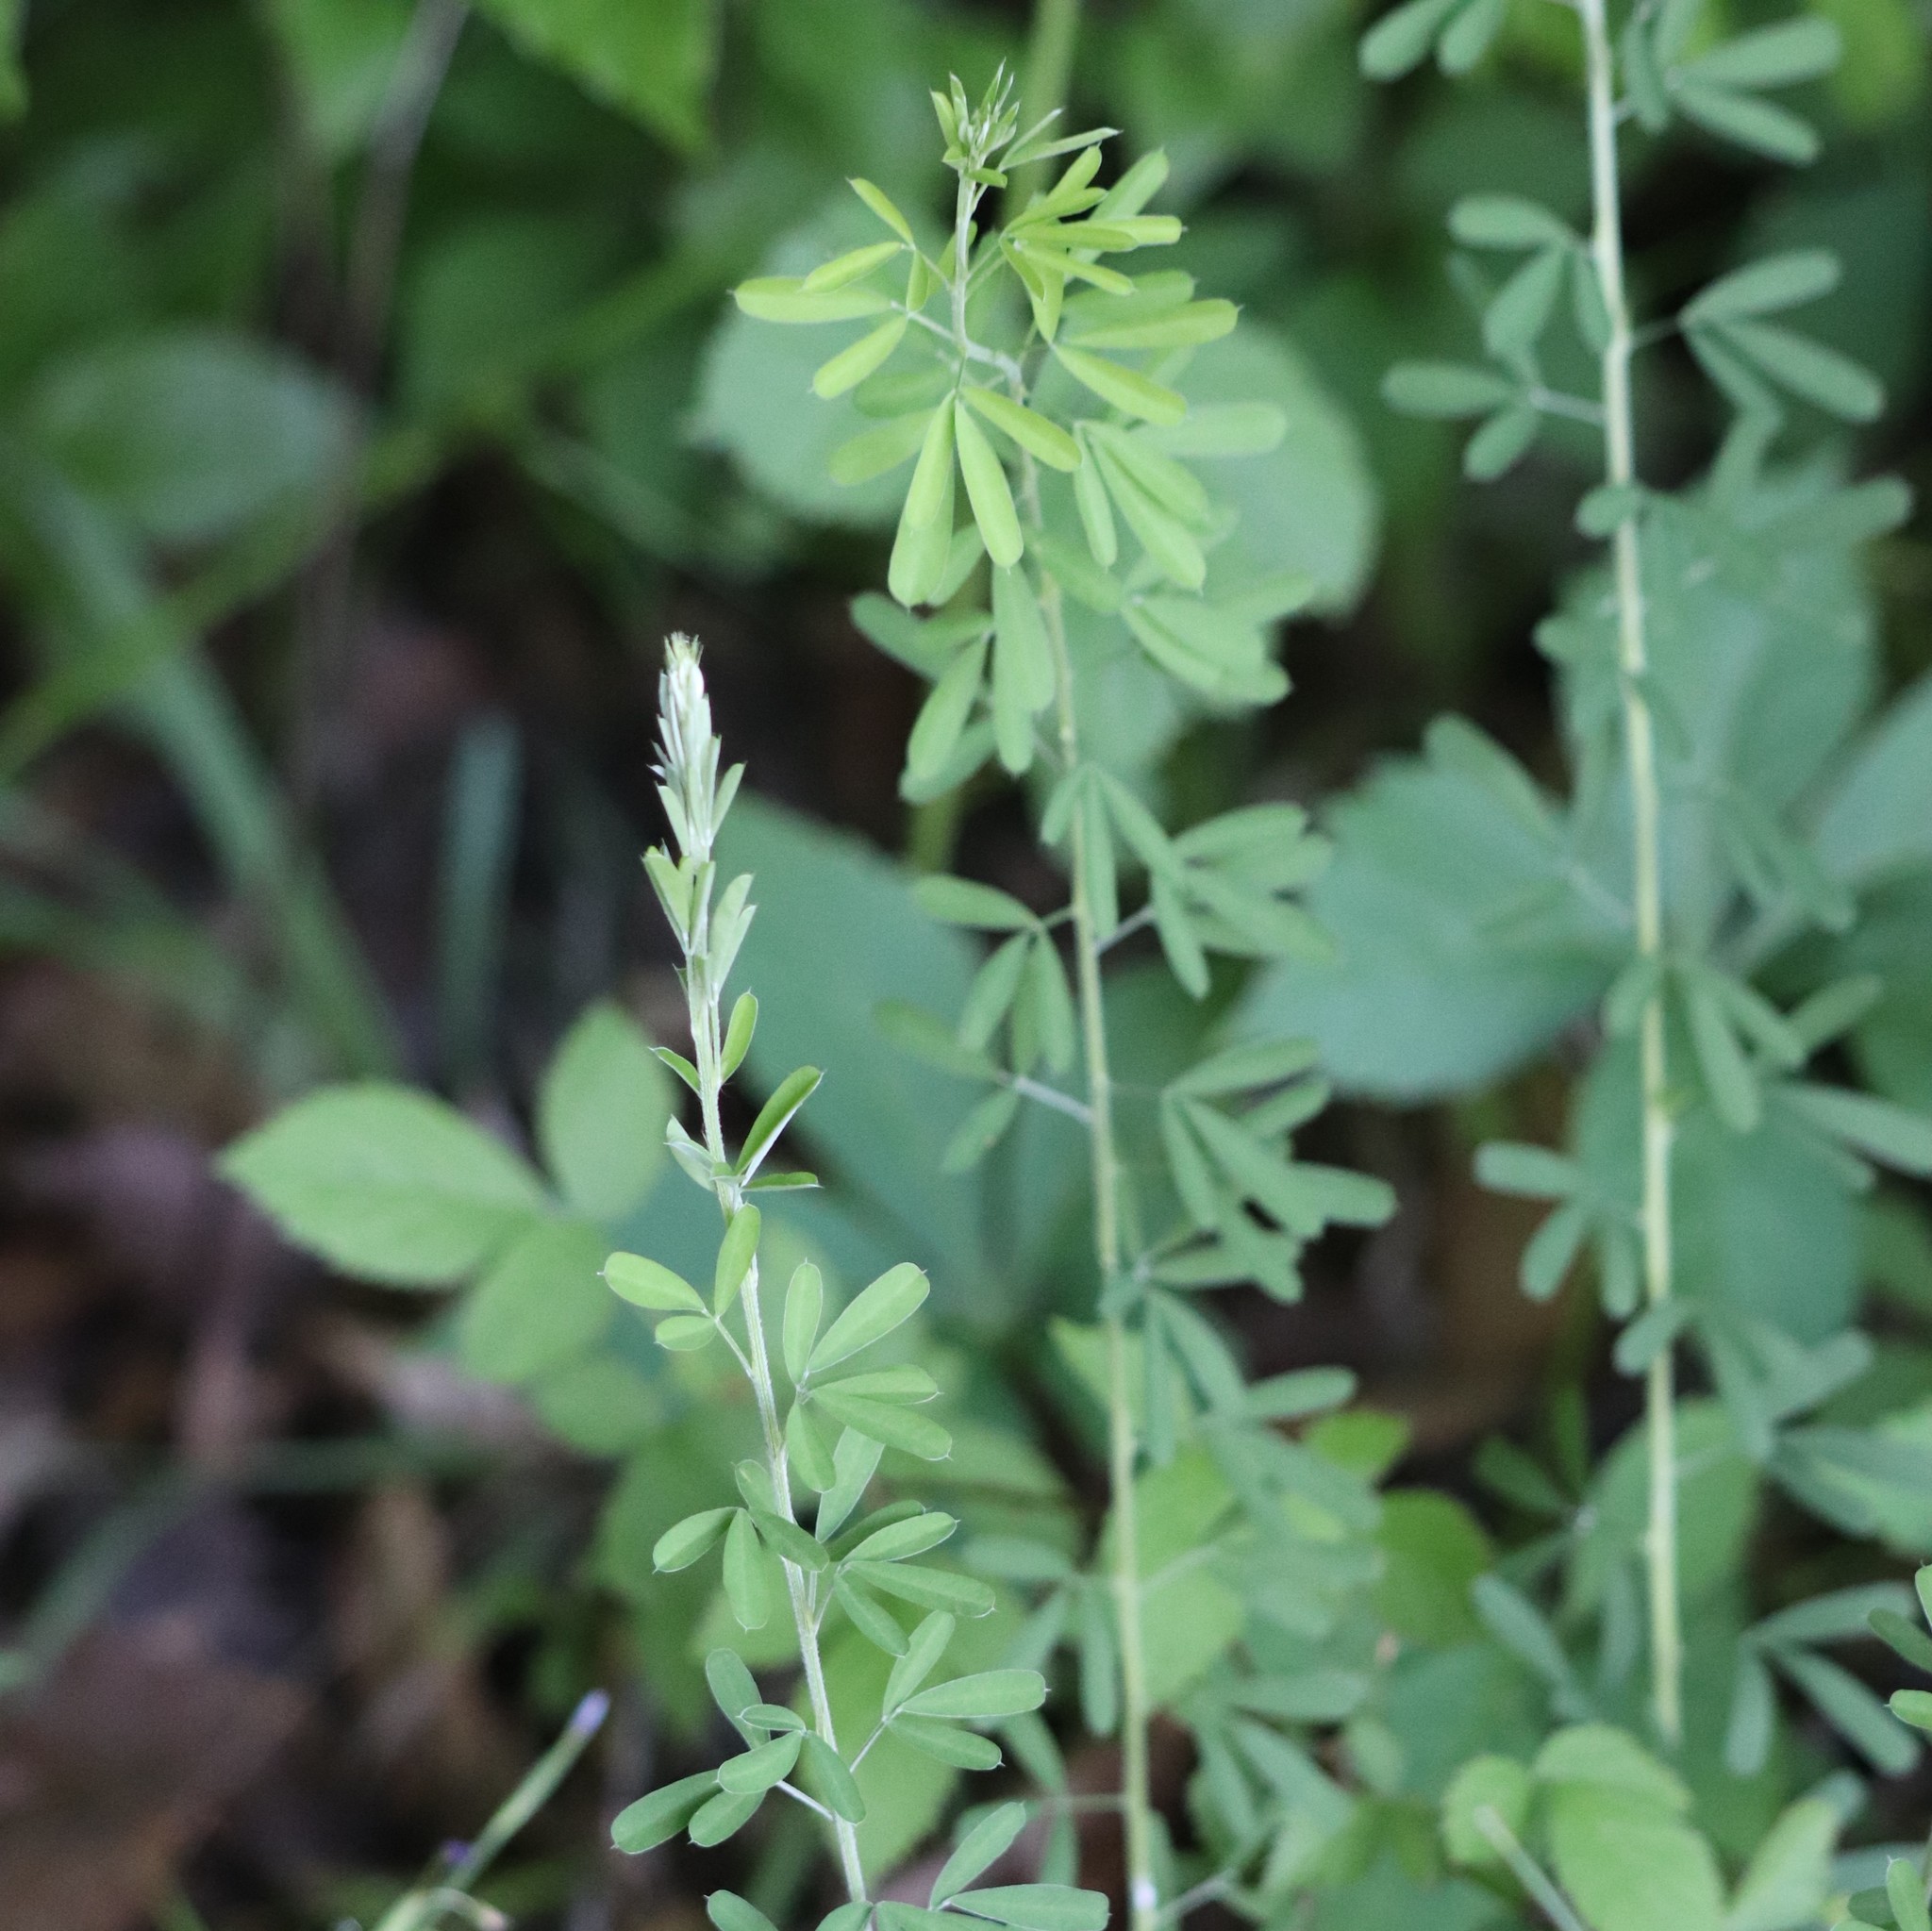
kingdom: Plantae
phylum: Tracheophyta
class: Magnoliopsida
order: Fabales
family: Fabaceae
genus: Lespedeza
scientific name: Lespedeza cuneata
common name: Chinese bush-clover
